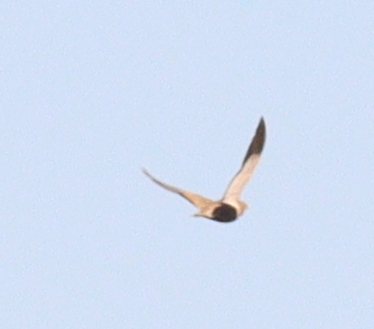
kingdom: Animalia
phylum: Chordata
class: Aves
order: Pteroclidiformes
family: Pteroclididae
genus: Pterocles
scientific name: Pterocles orientalis
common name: Black-bellied sandgrouse
